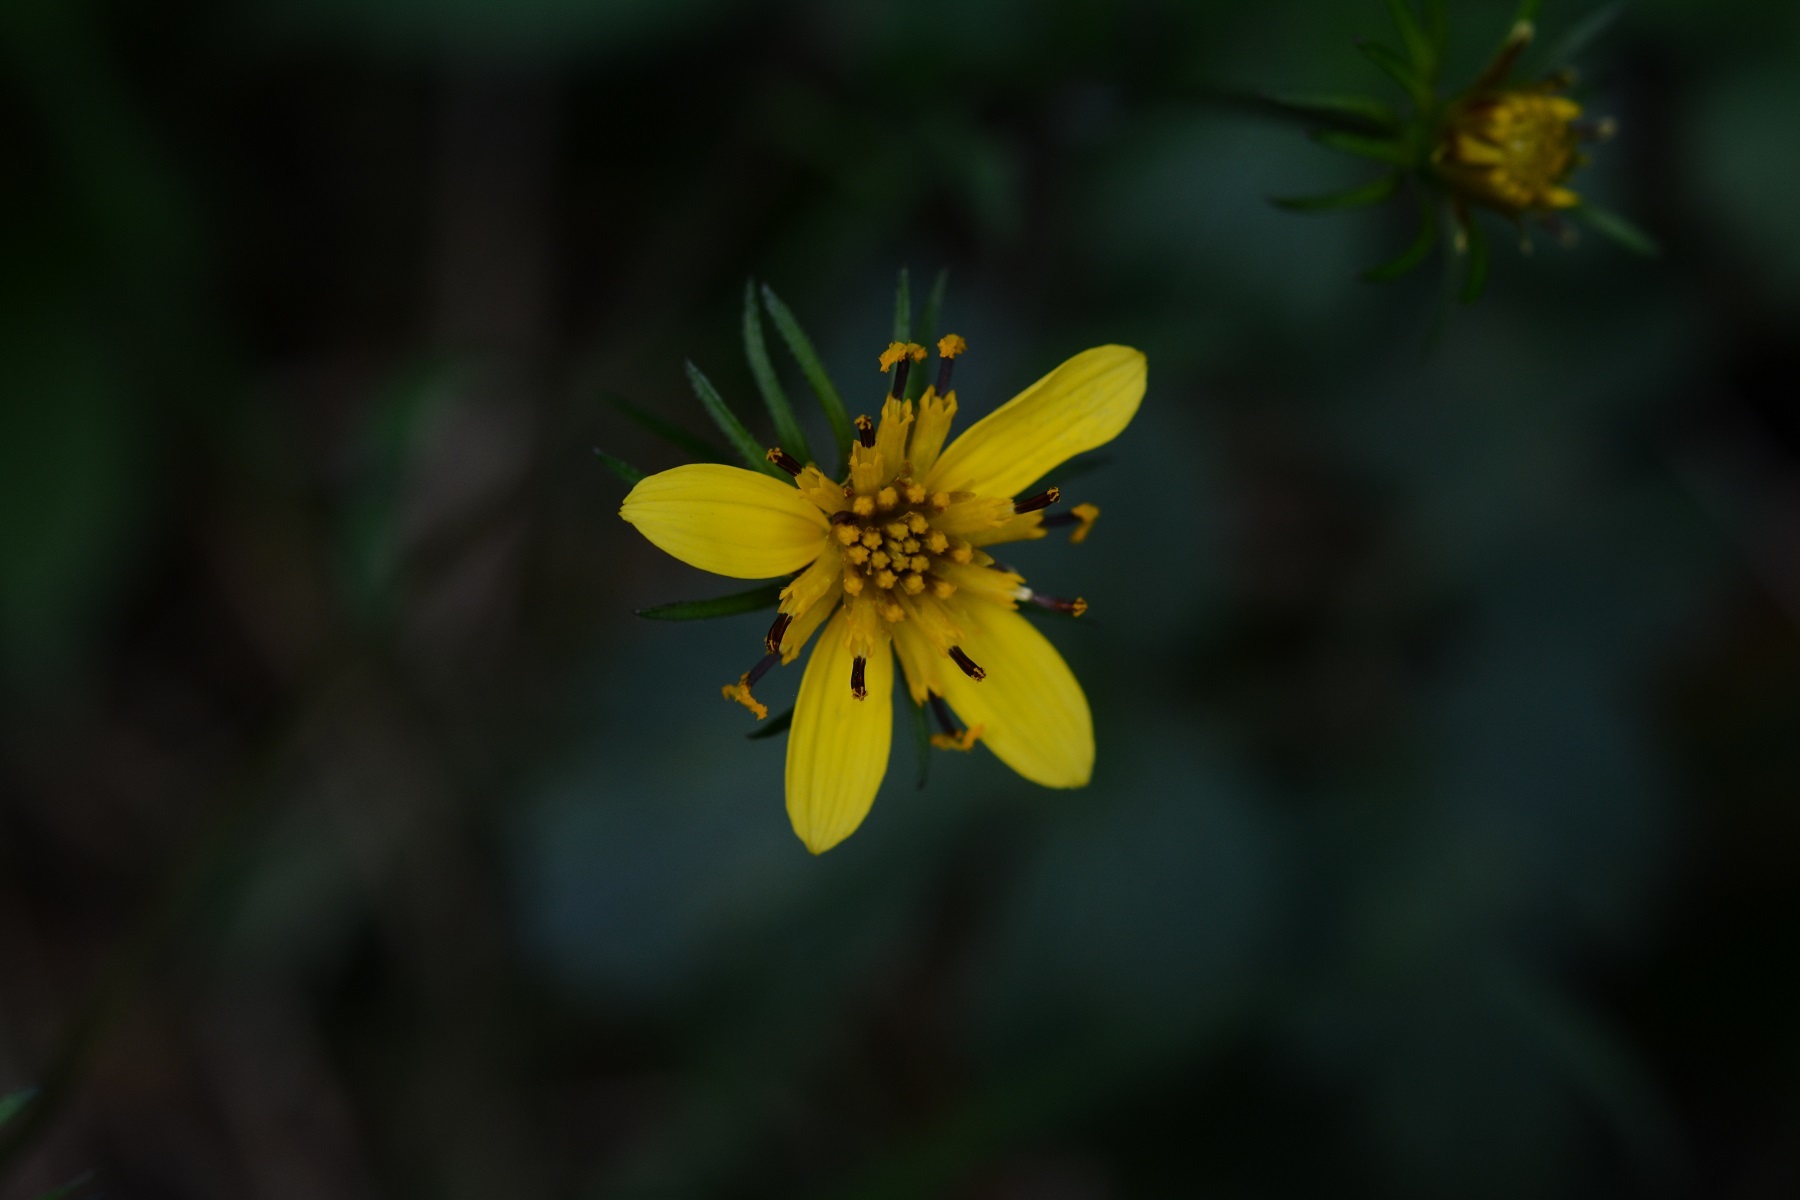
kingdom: Plantae
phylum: Tracheophyta
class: Magnoliopsida
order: Asterales
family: Asteraceae
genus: Bidens
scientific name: Bidens ostruthioides
